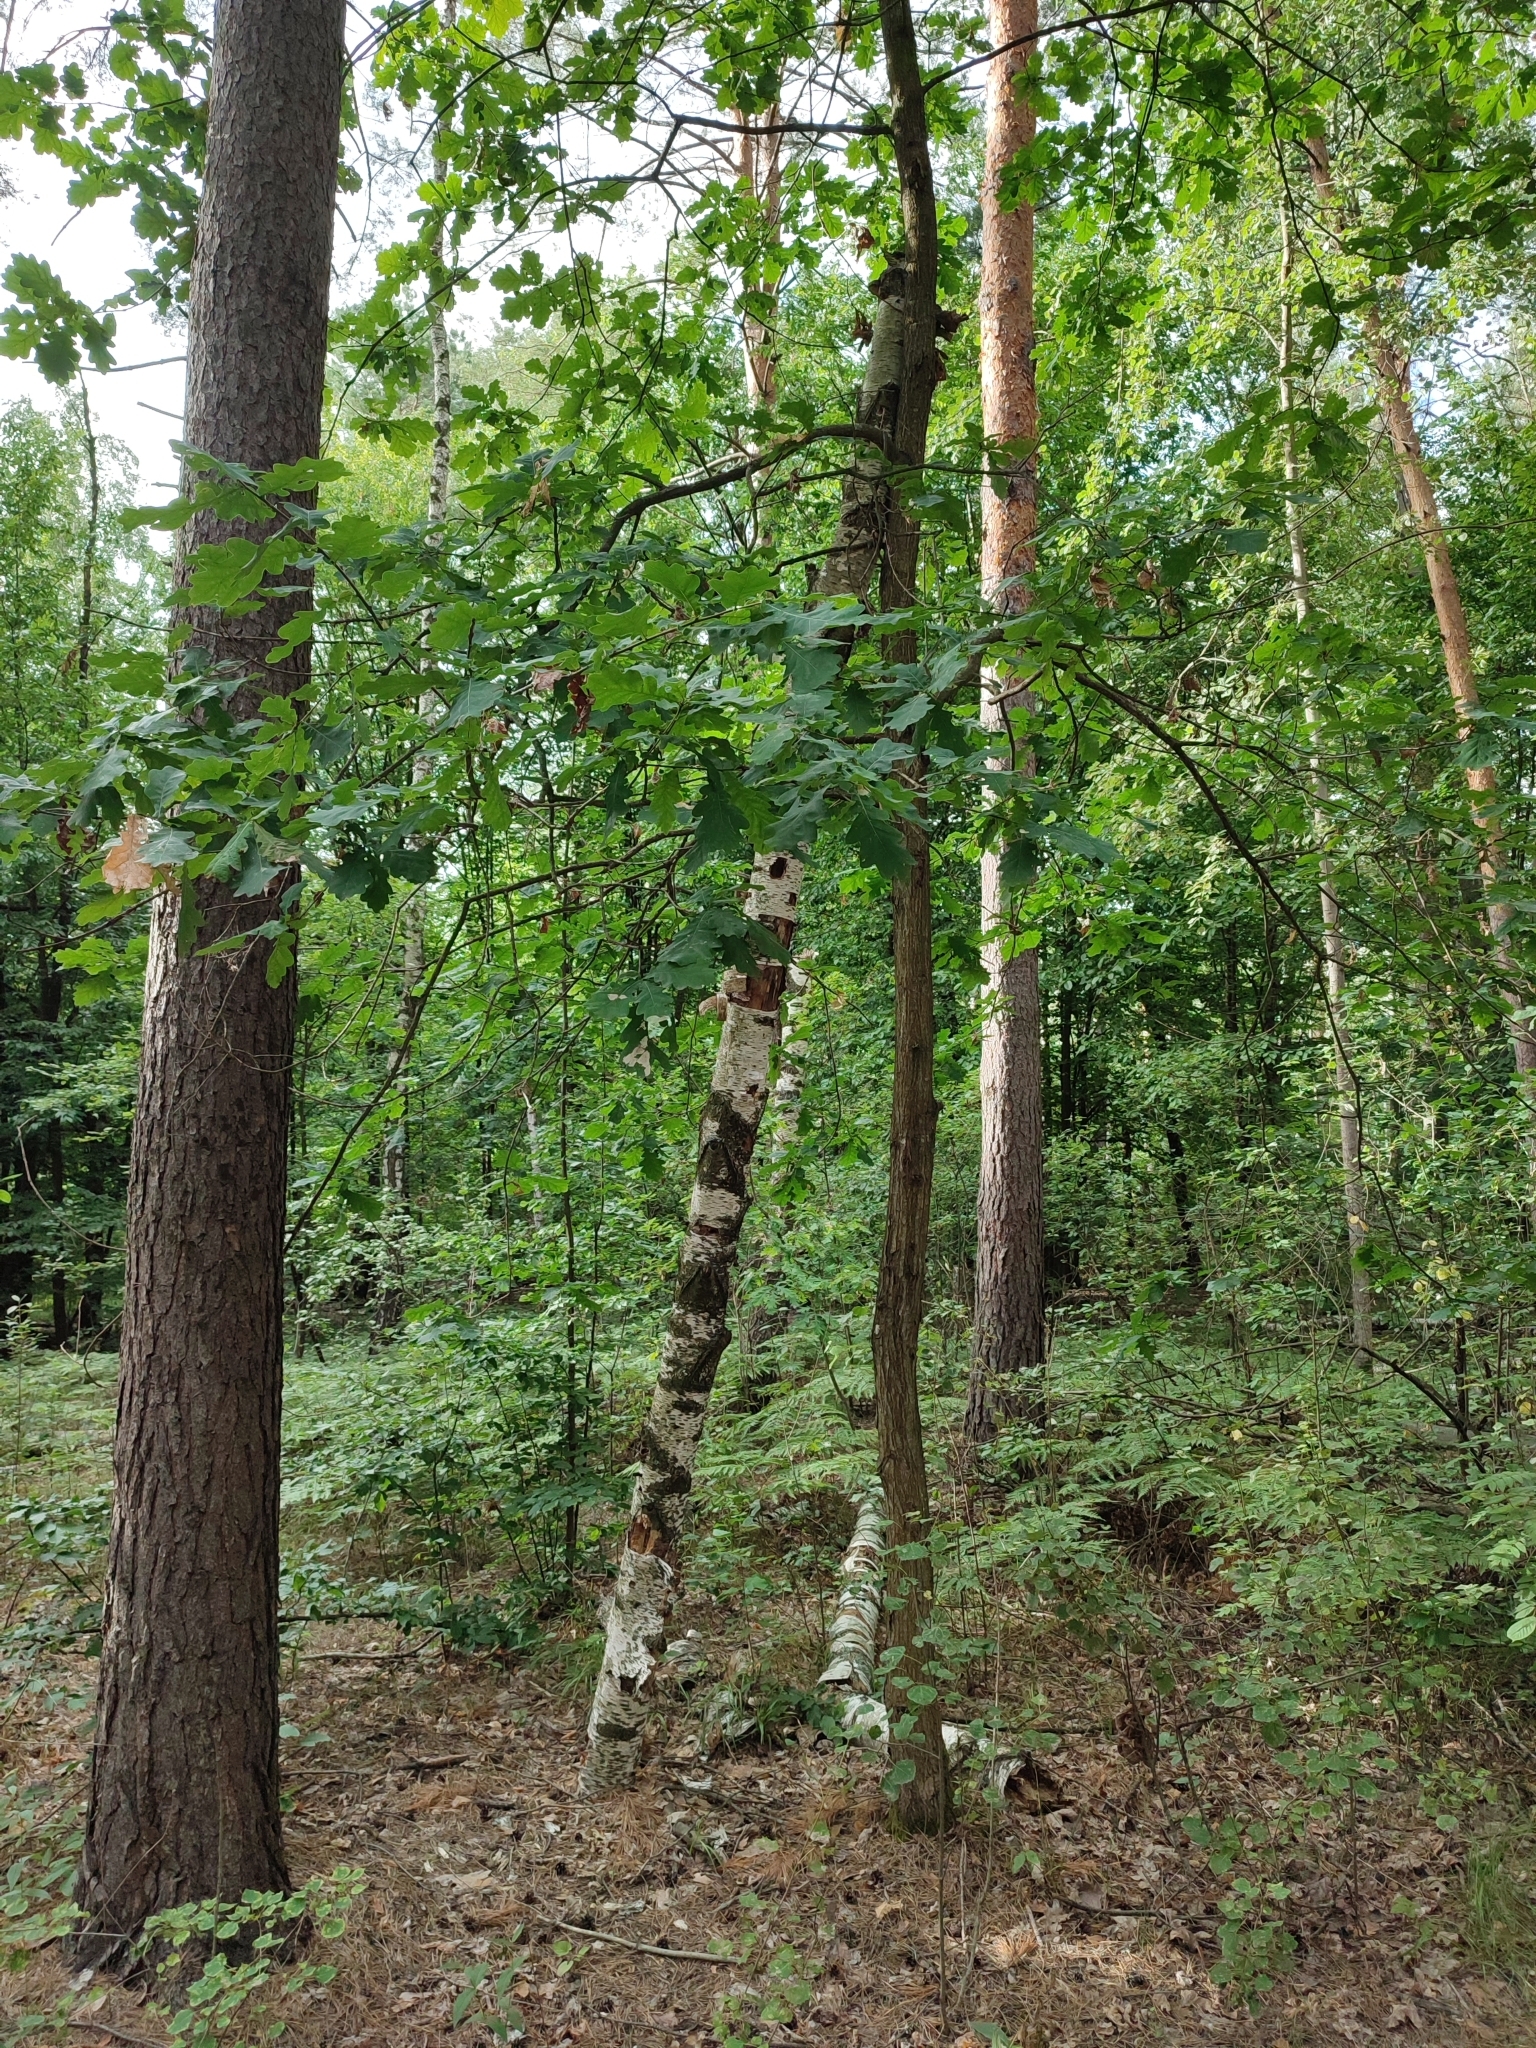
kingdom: Plantae
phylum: Tracheophyta
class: Magnoliopsida
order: Fagales
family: Fagaceae
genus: Quercus
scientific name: Quercus robur
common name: Pedunculate oak
